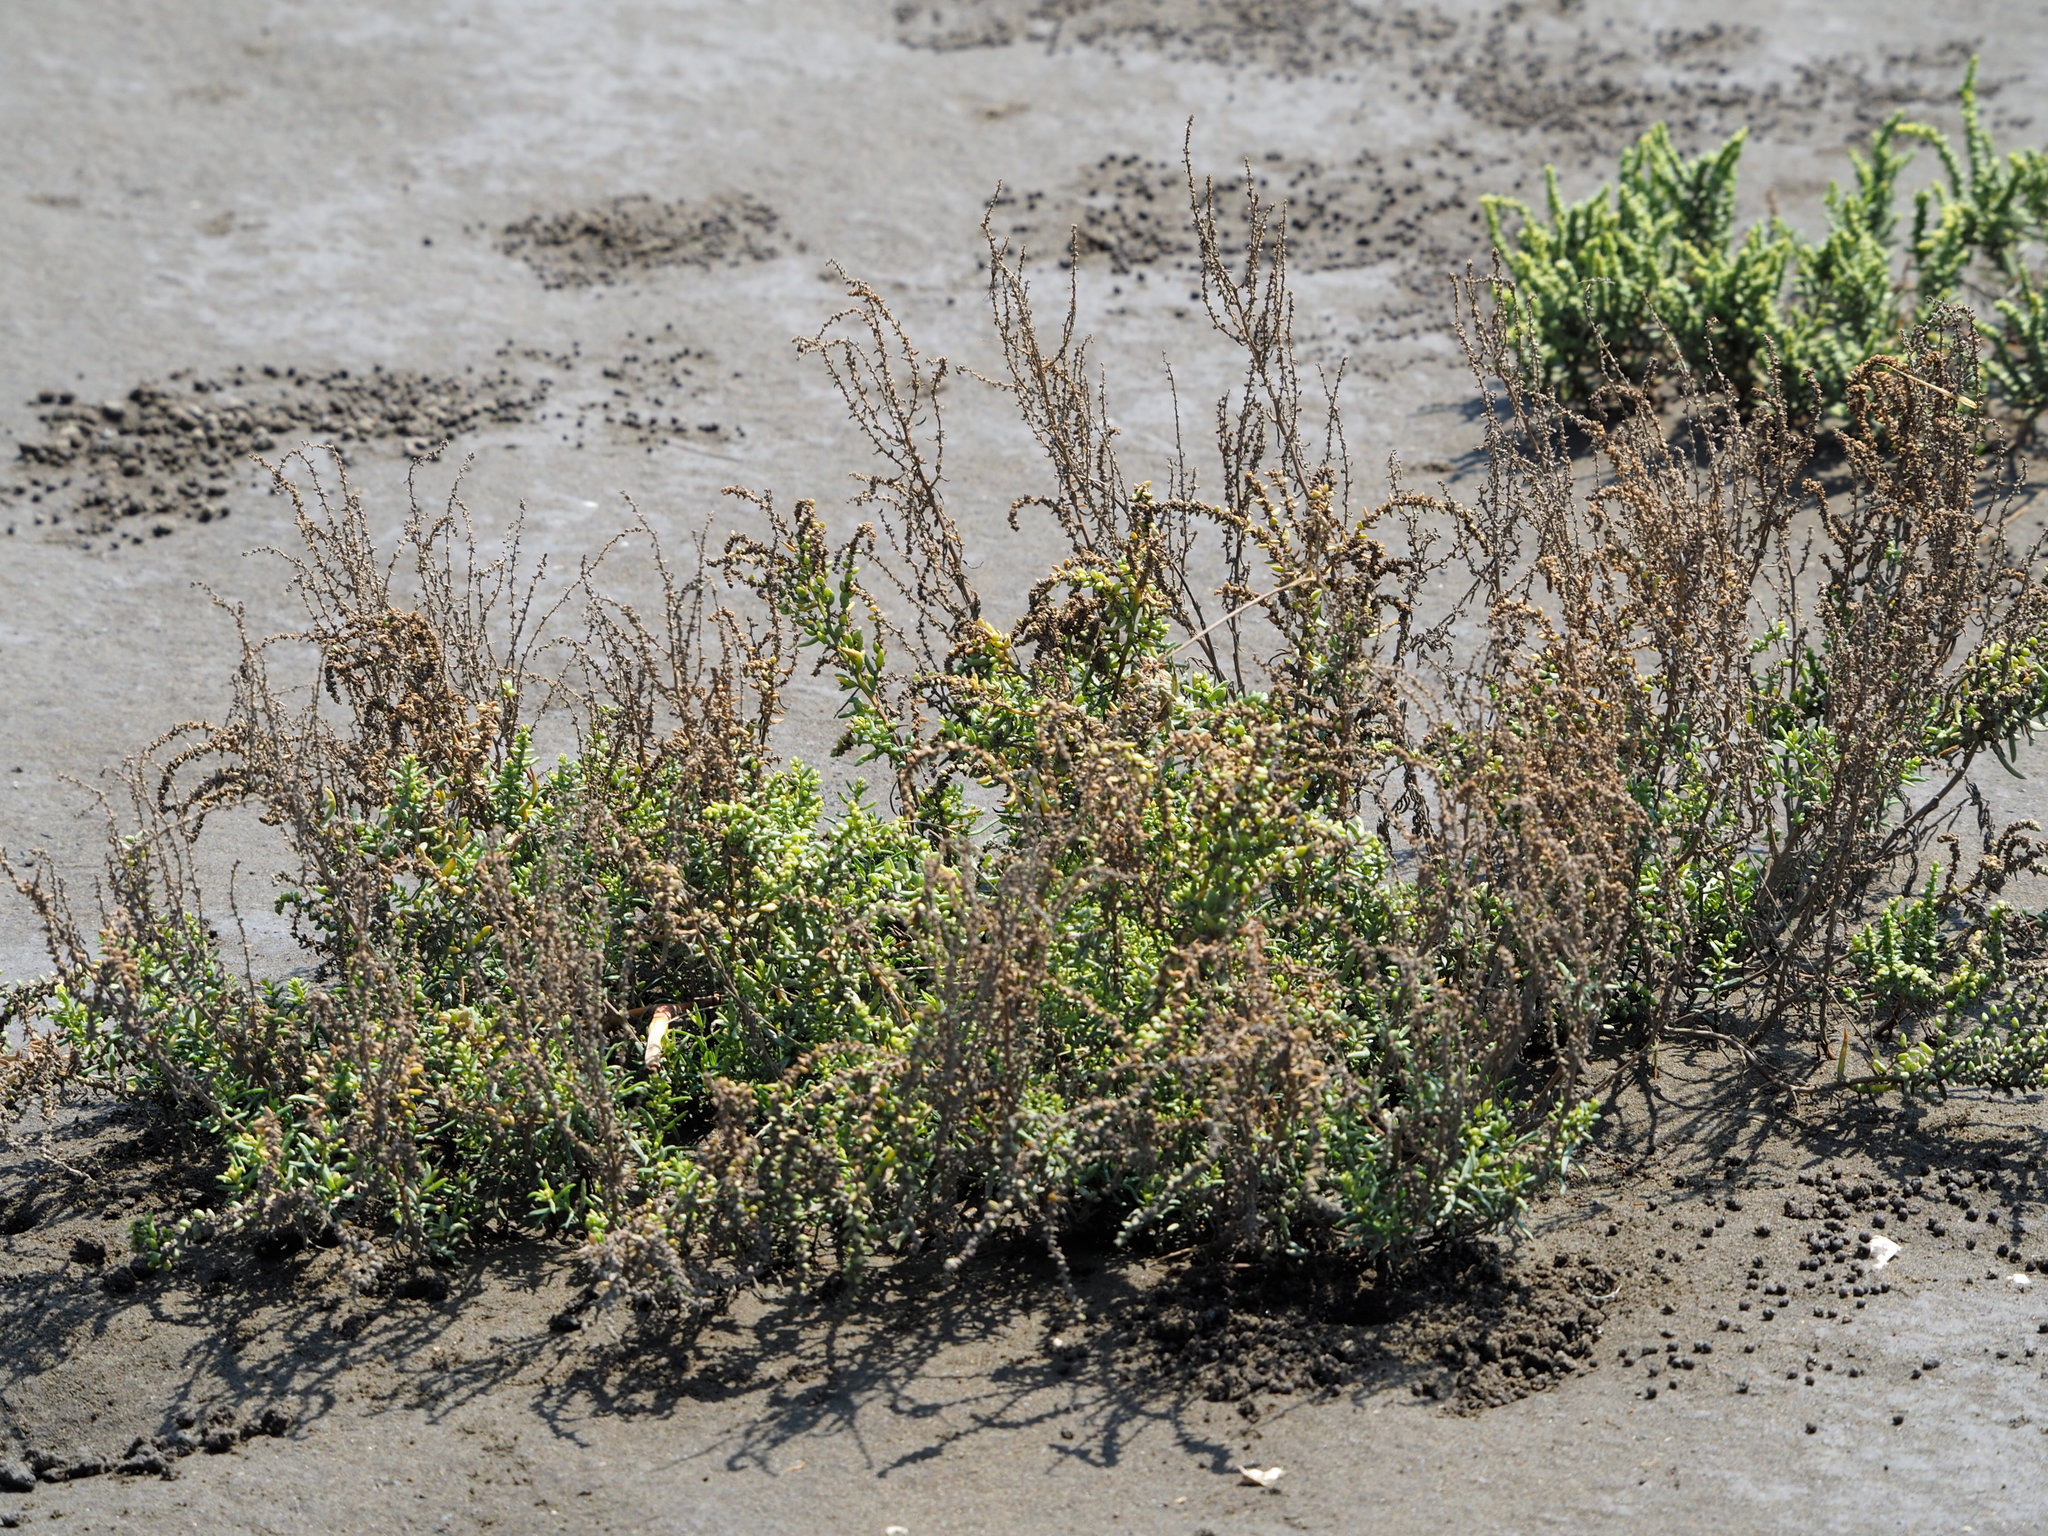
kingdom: Plantae
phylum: Tracheophyta
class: Magnoliopsida
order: Caryophyllales
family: Amaranthaceae
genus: Suaeda
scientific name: Suaeda maritima
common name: Annual sea-blite
